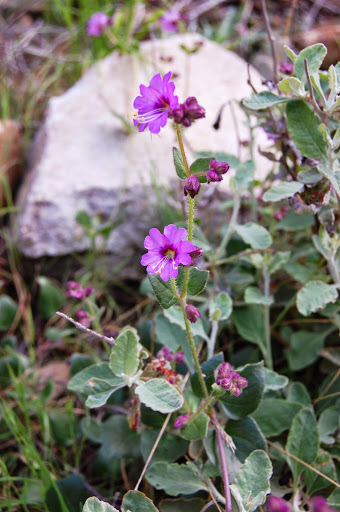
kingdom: Plantae
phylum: Tracheophyta
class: Magnoliopsida
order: Caryophyllales
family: Nyctaginaceae
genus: Mirabilis
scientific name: Mirabilis laevis
